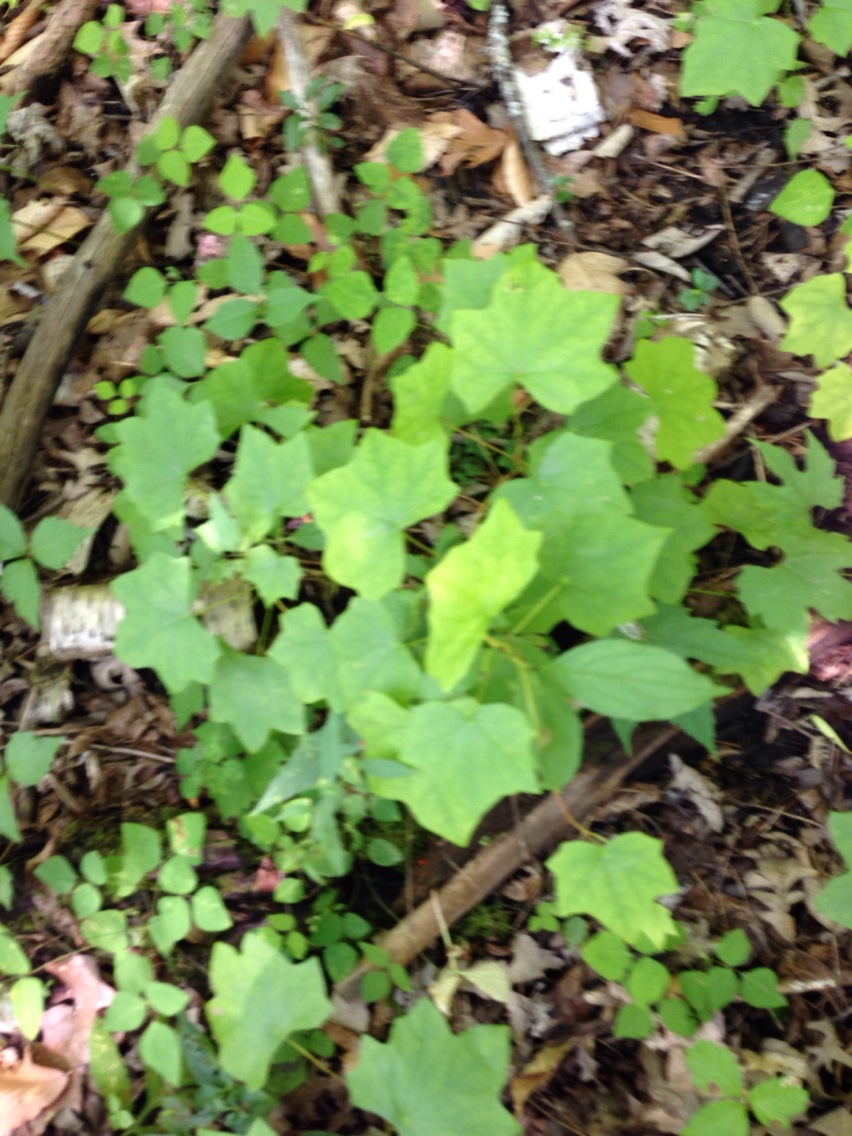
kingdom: Plantae
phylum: Tracheophyta
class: Magnoliopsida
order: Ranunculales
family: Menispermaceae
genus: Menispermum
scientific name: Menispermum canadense
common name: Moonseed
